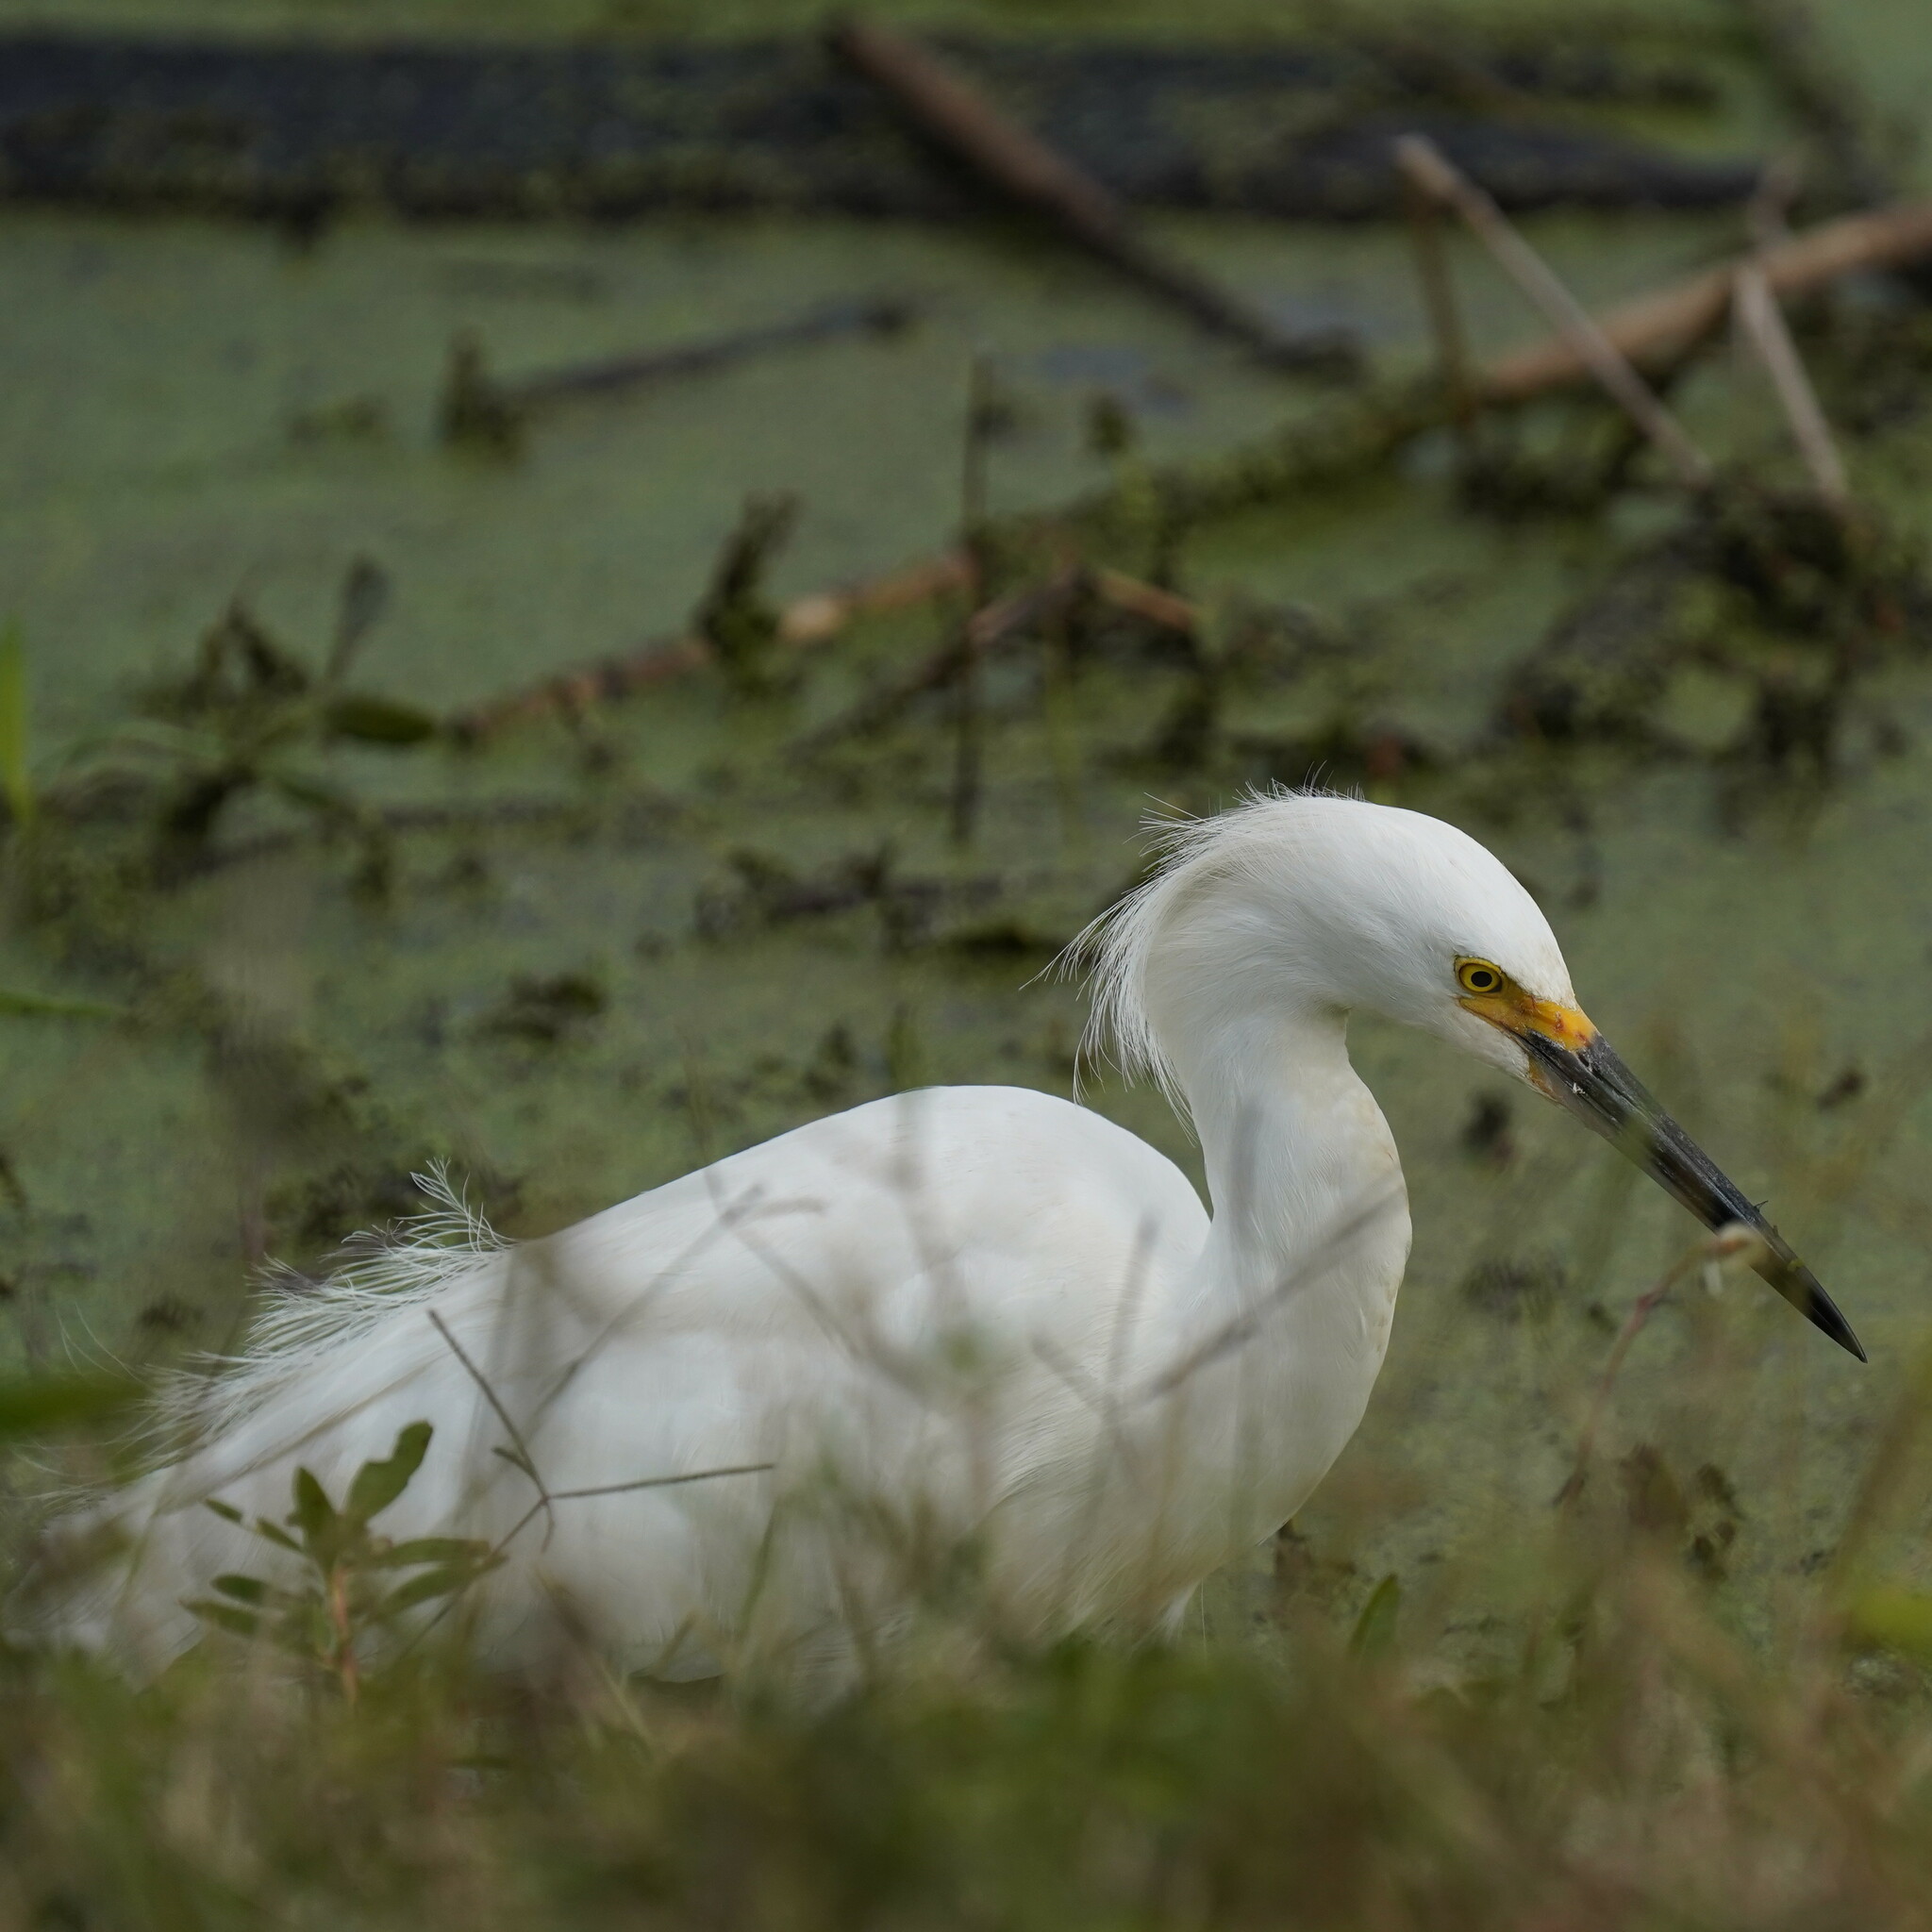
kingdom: Animalia
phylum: Chordata
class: Aves
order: Pelecaniformes
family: Ardeidae
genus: Egretta
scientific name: Egretta thula
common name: Snowy egret
